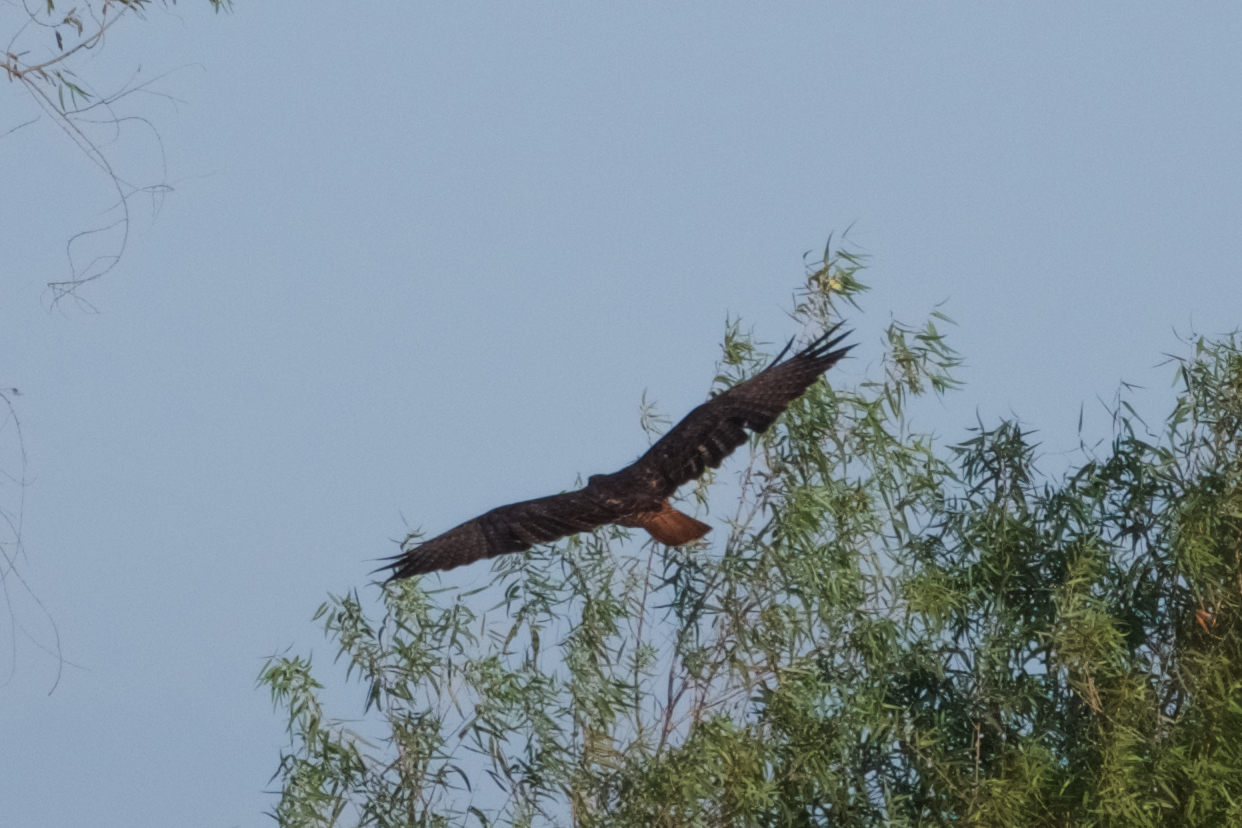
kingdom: Animalia
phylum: Chordata
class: Aves
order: Accipitriformes
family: Accipitridae
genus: Buteo
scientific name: Buteo jamaicensis
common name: Red-tailed hawk
